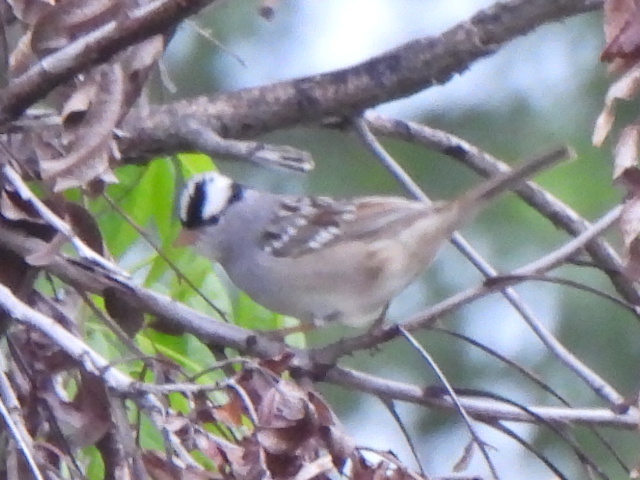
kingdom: Animalia
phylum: Chordata
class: Aves
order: Passeriformes
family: Passerellidae
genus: Zonotrichia
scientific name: Zonotrichia leucophrys
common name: White-crowned sparrow
